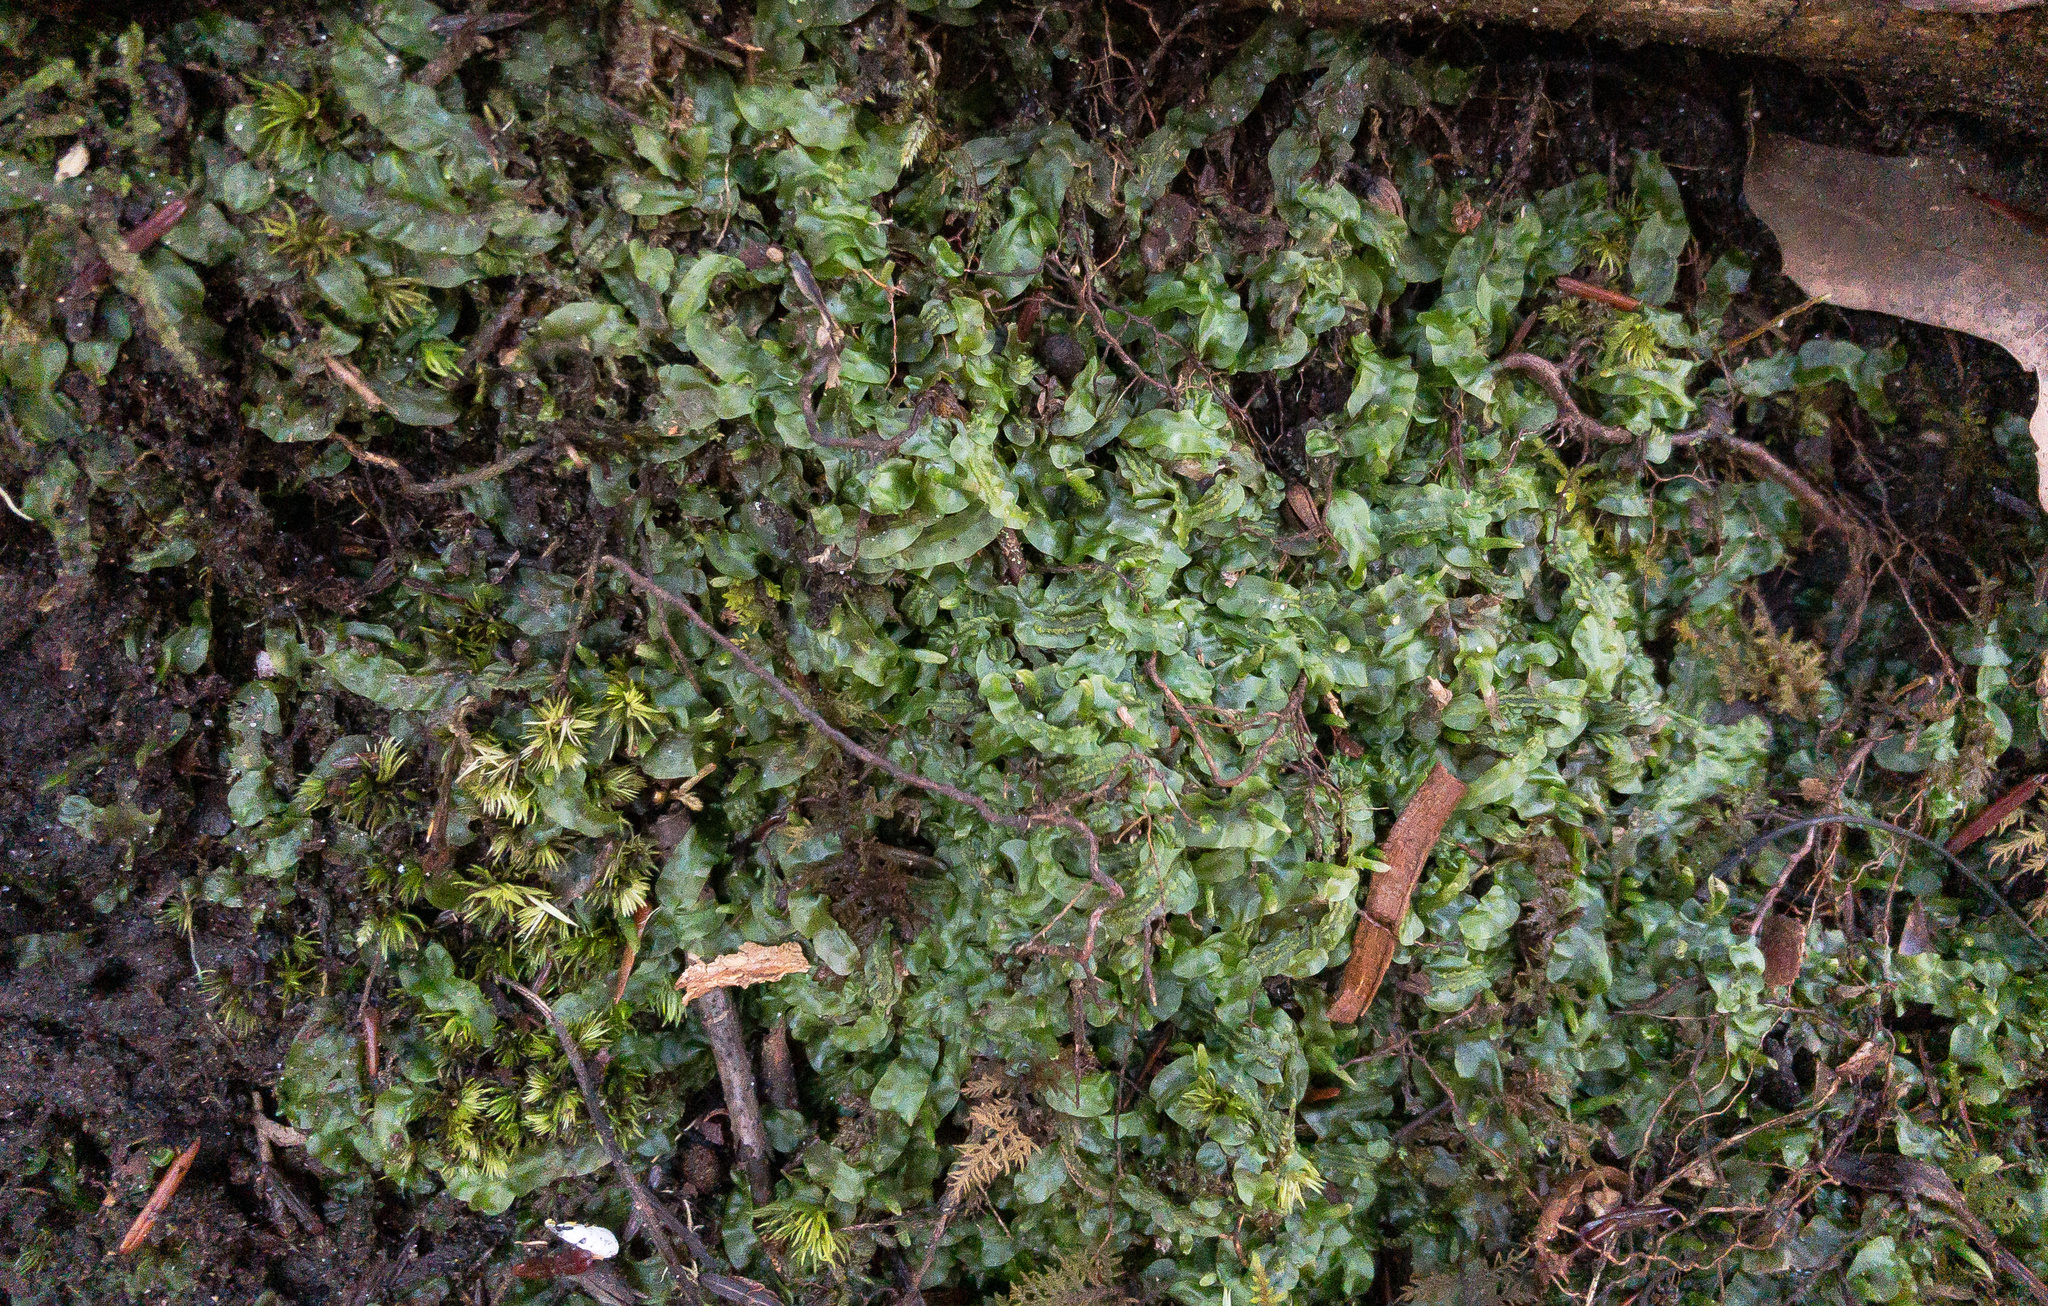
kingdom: Plantae
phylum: Marchantiophyta
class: Jungermanniopsida
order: Pallaviciniales
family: Pallaviciniaceae
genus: Pallavicinia
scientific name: Pallavicinia lyellii
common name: Veilwort
